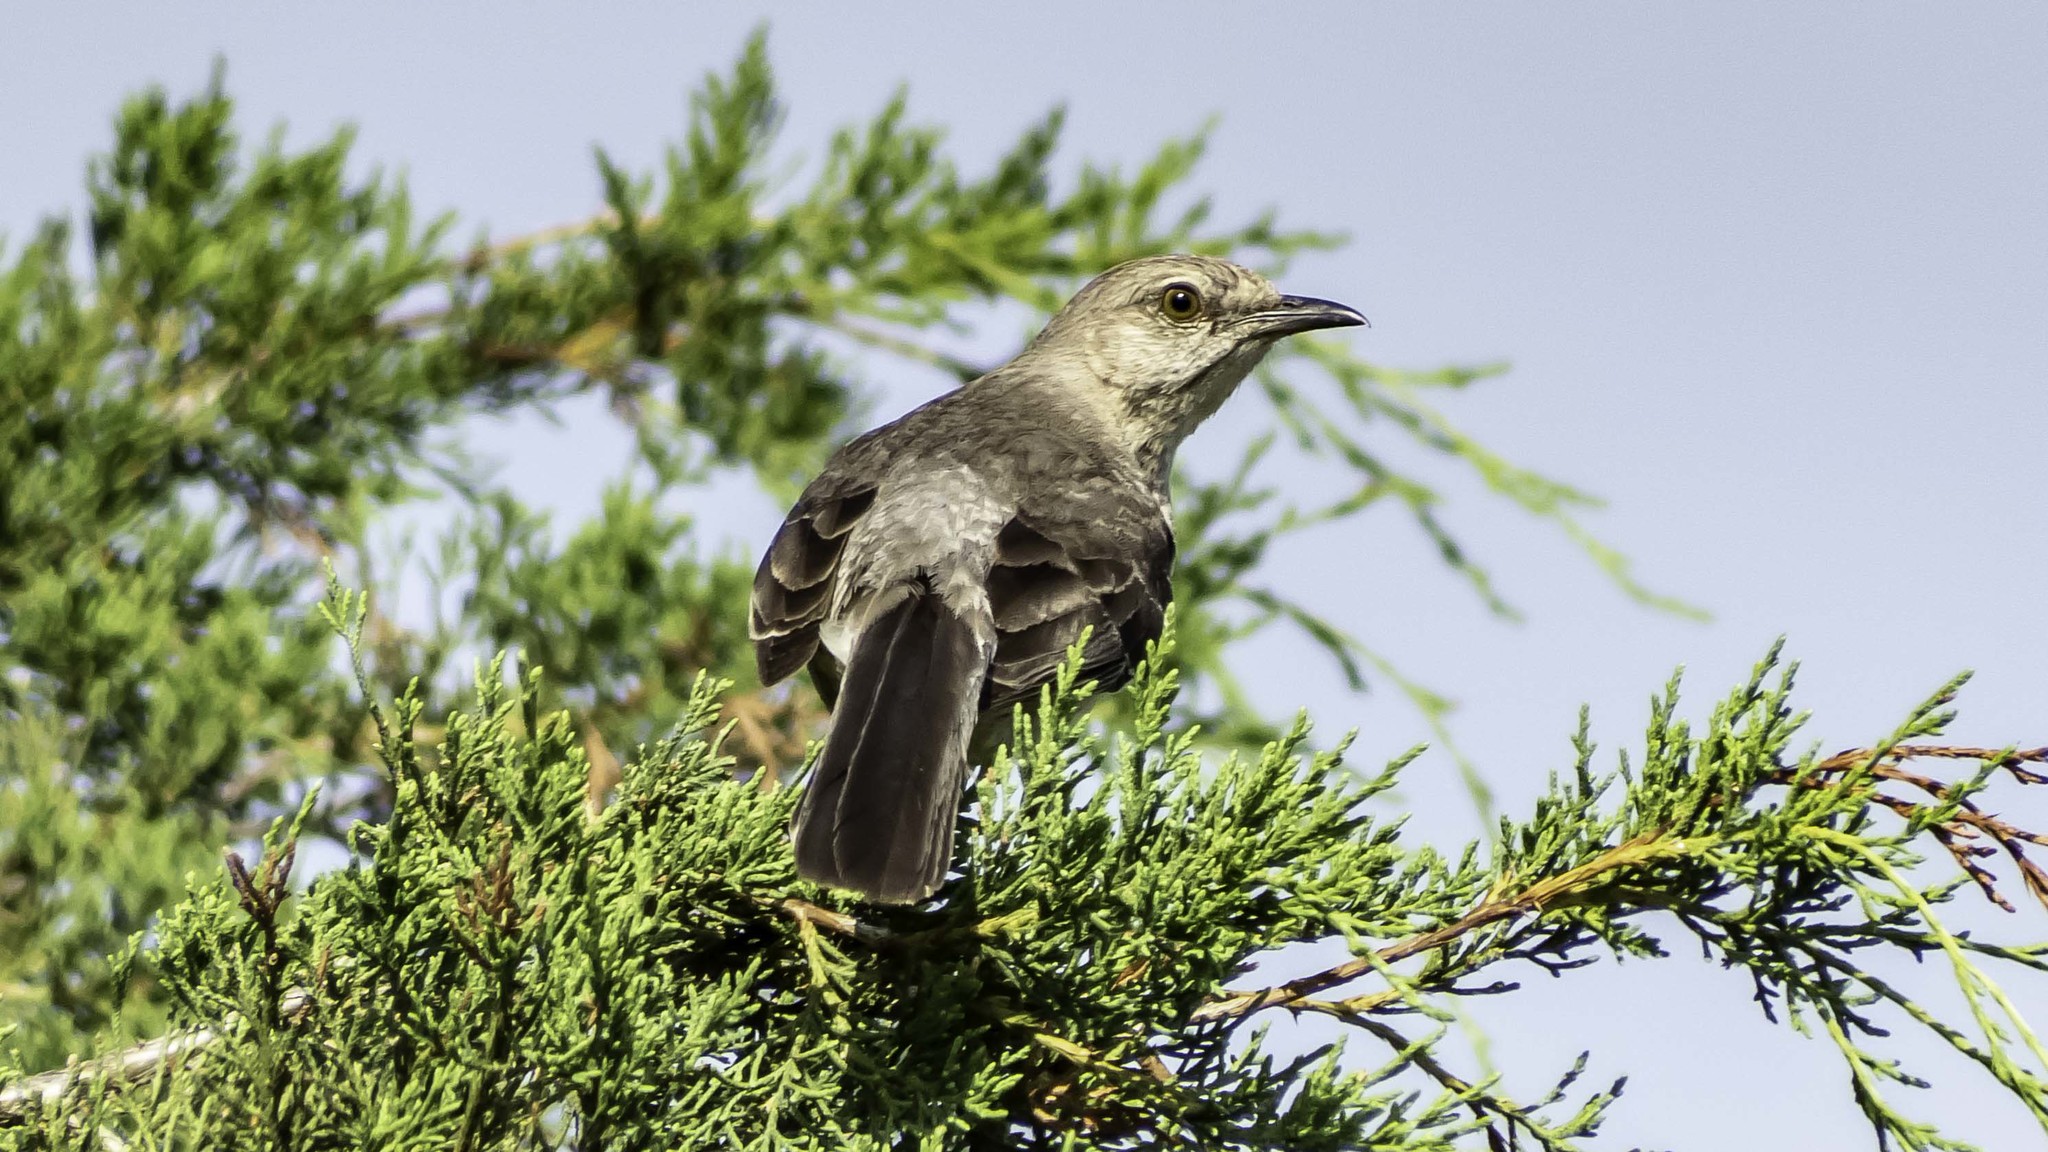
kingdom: Animalia
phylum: Chordata
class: Aves
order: Passeriformes
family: Mimidae
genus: Mimus
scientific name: Mimus polyglottos
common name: Northern mockingbird
